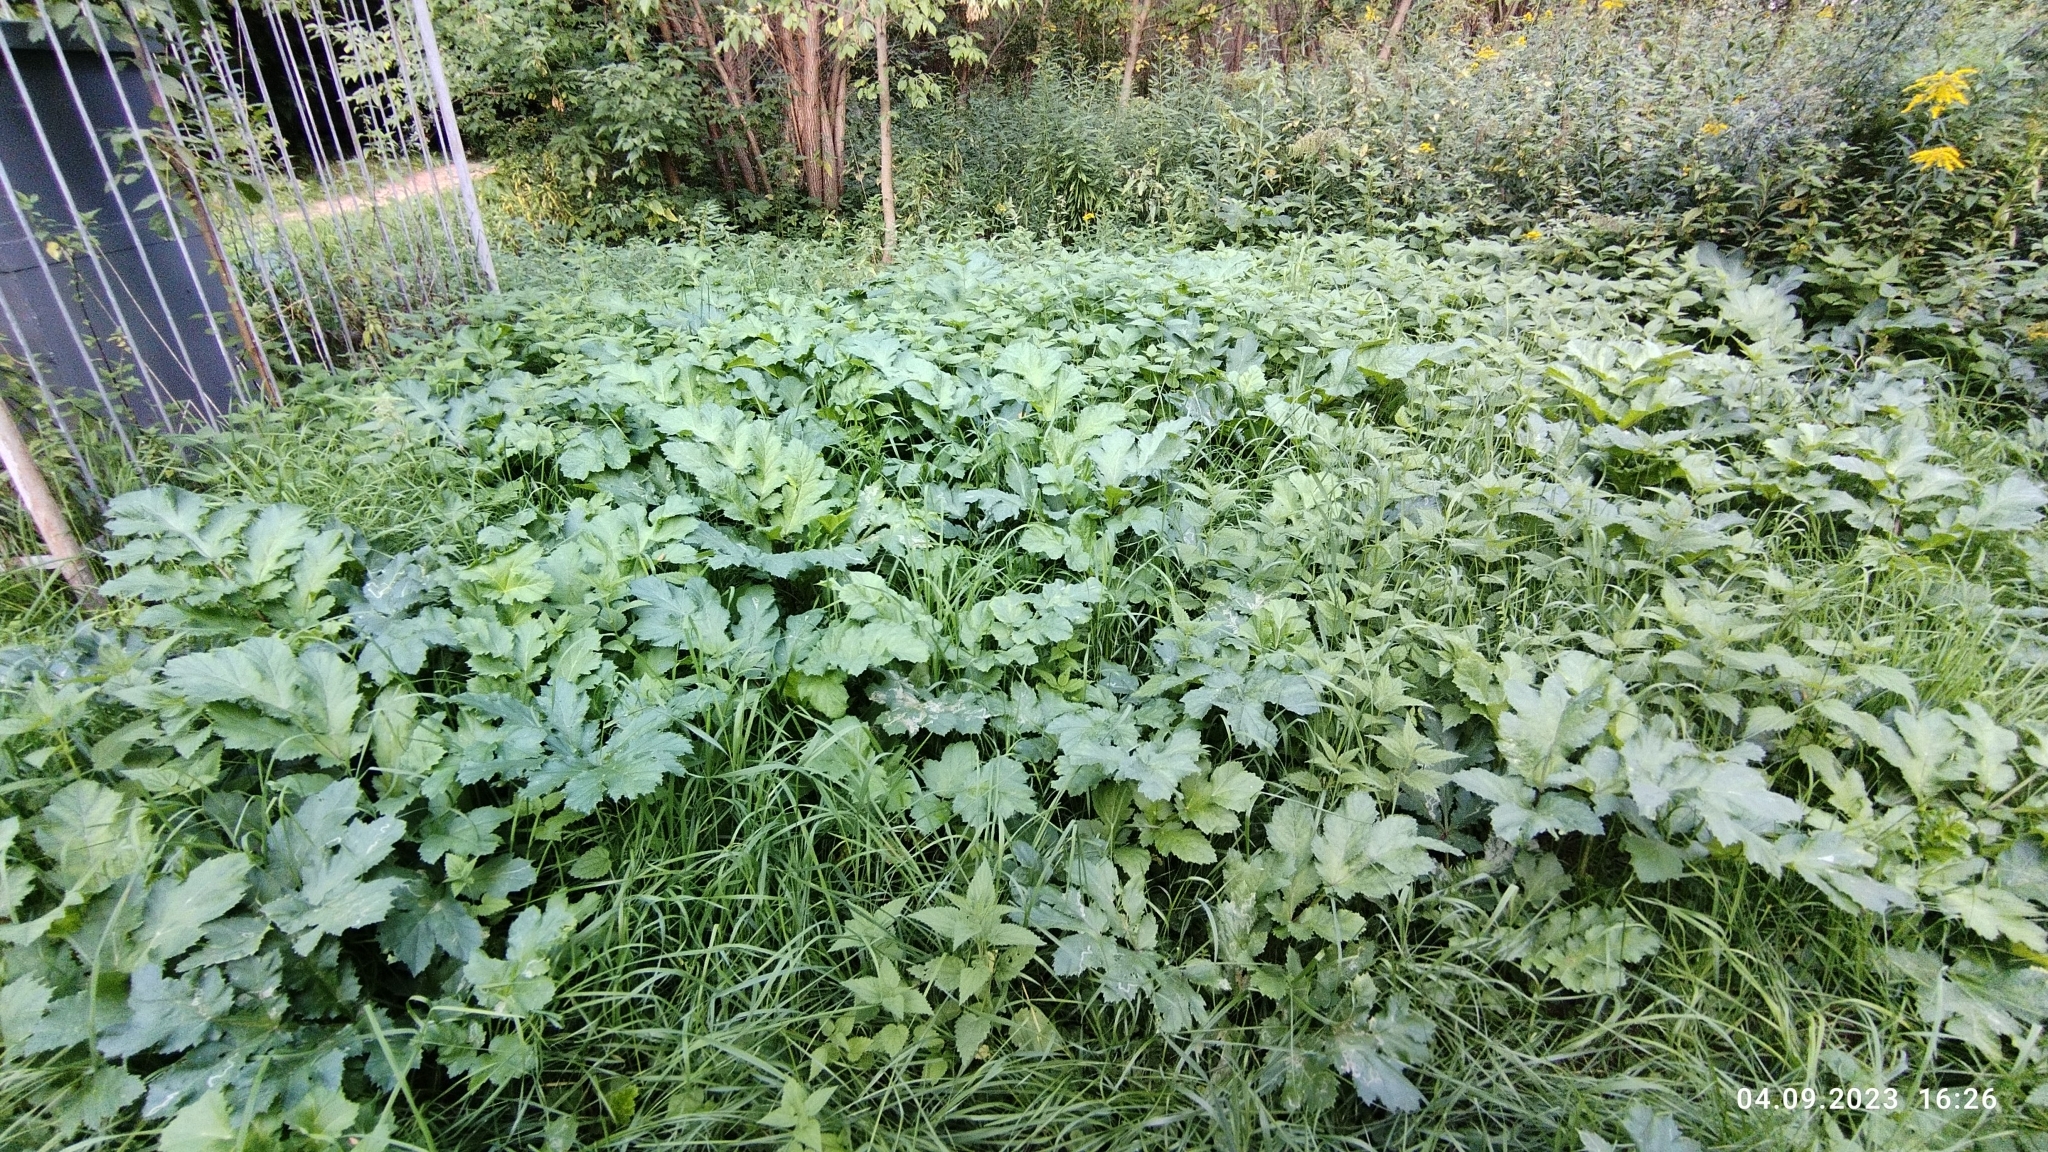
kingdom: Plantae
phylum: Tracheophyta
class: Magnoliopsida
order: Apiales
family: Apiaceae
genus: Heracleum
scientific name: Heracleum sosnowskyi
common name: Sosnowsky's hogweed
